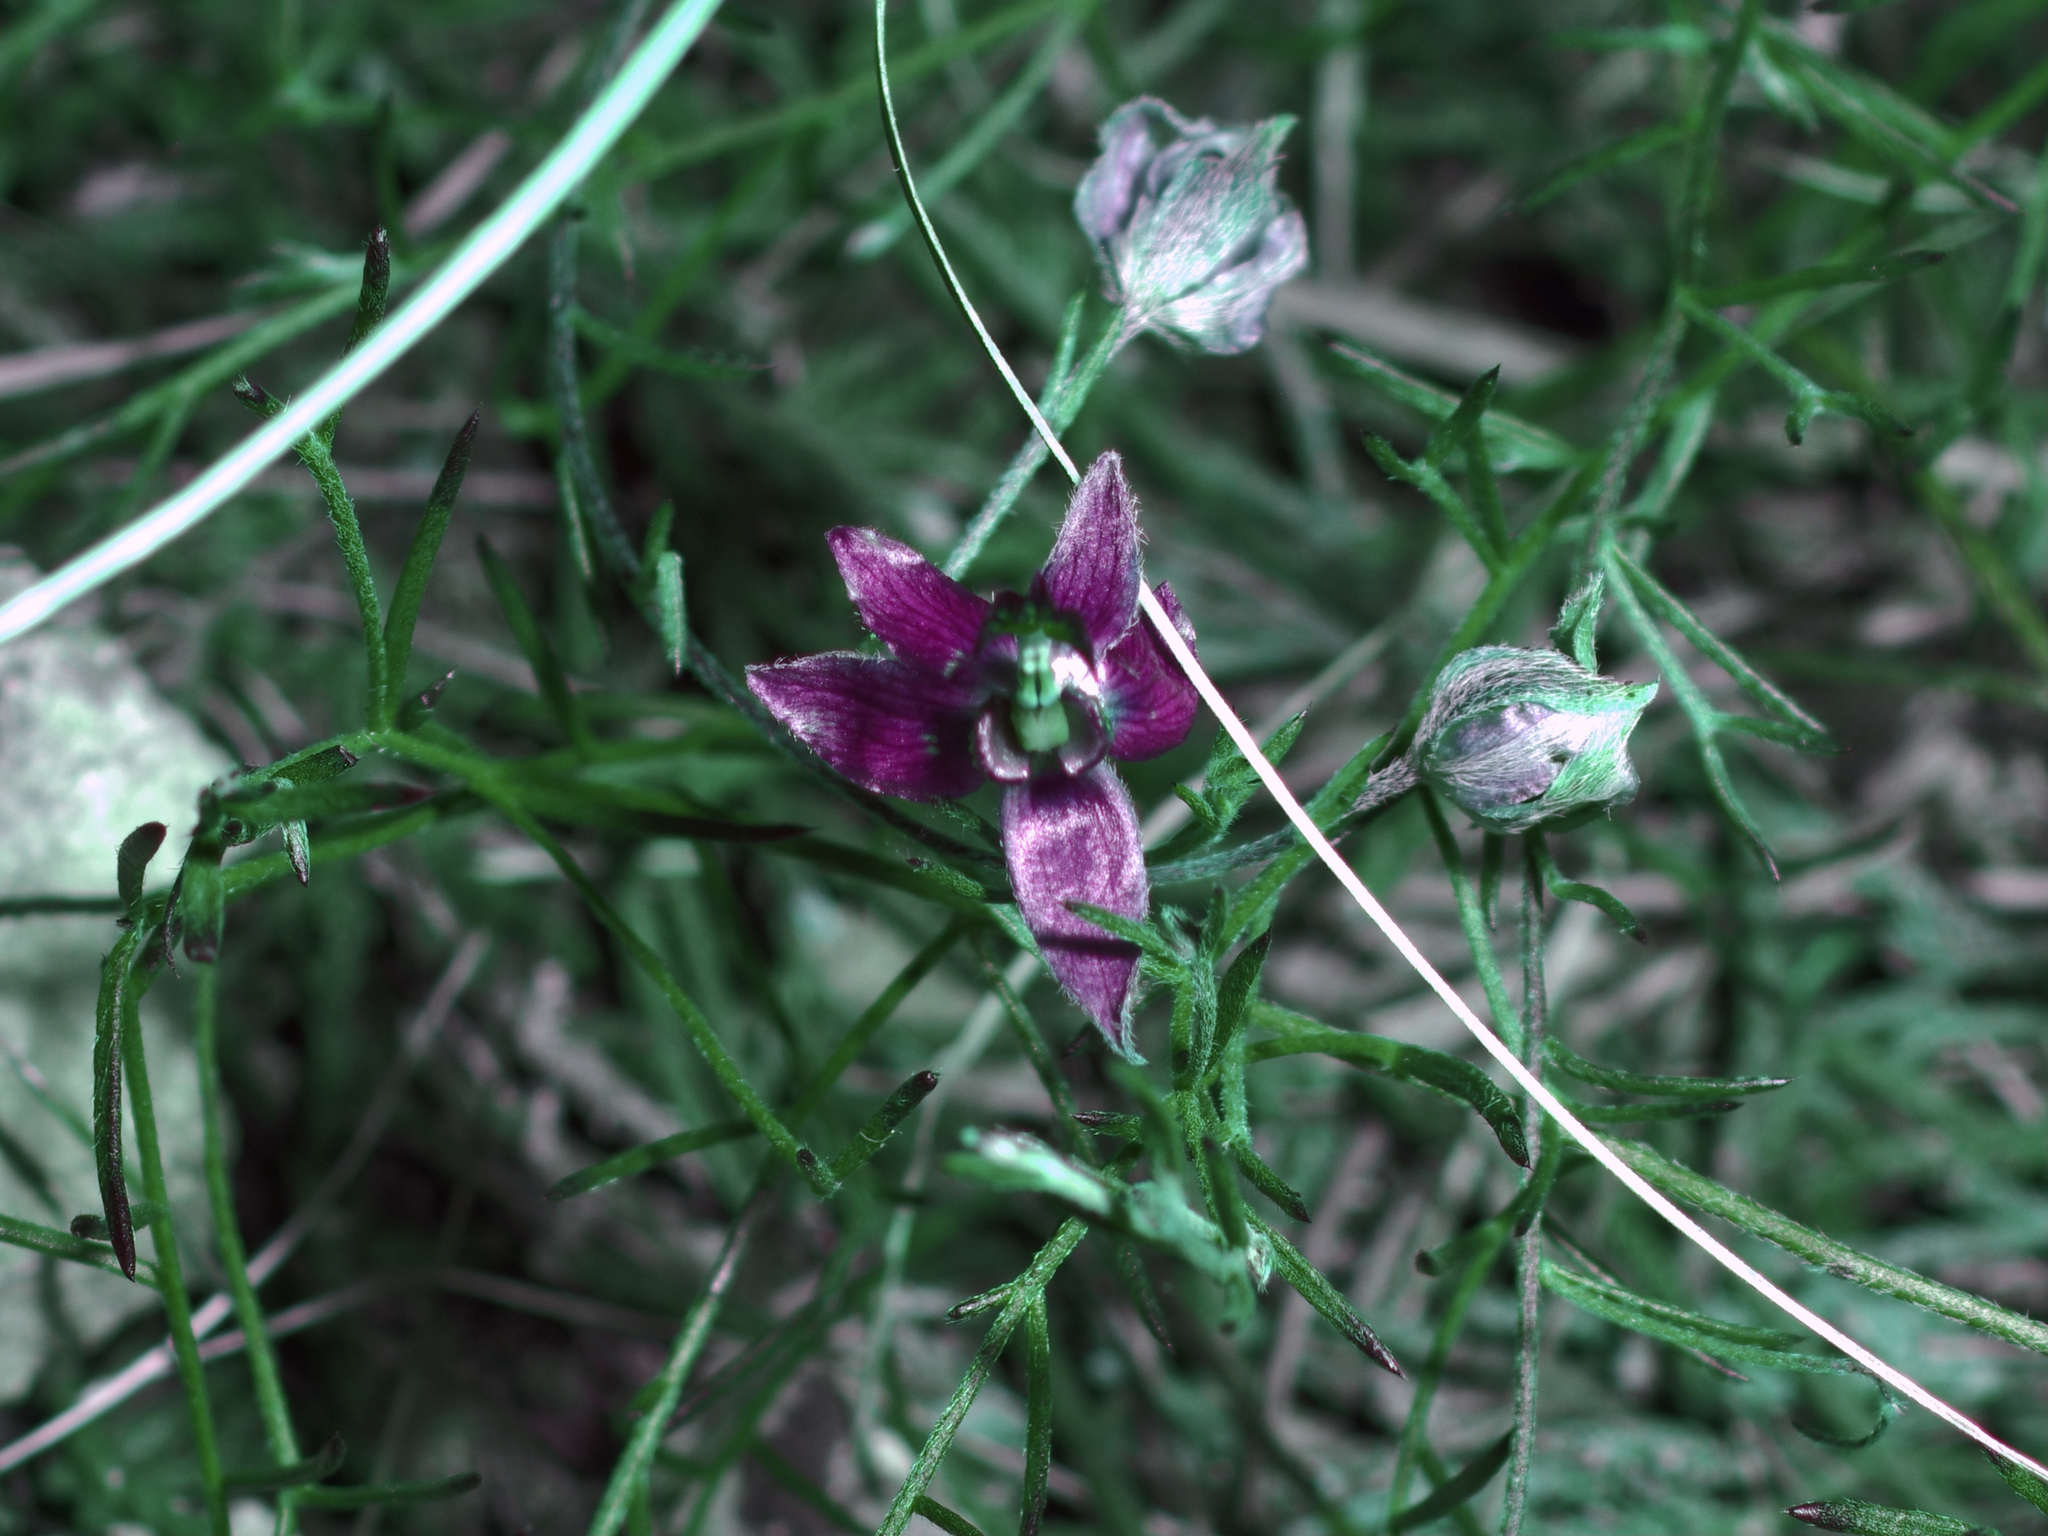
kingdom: Plantae
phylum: Tracheophyta
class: Magnoliopsida
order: Zygophyllales
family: Krameriaceae
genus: Krameria
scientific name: Krameria lanceolata
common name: Ratany
